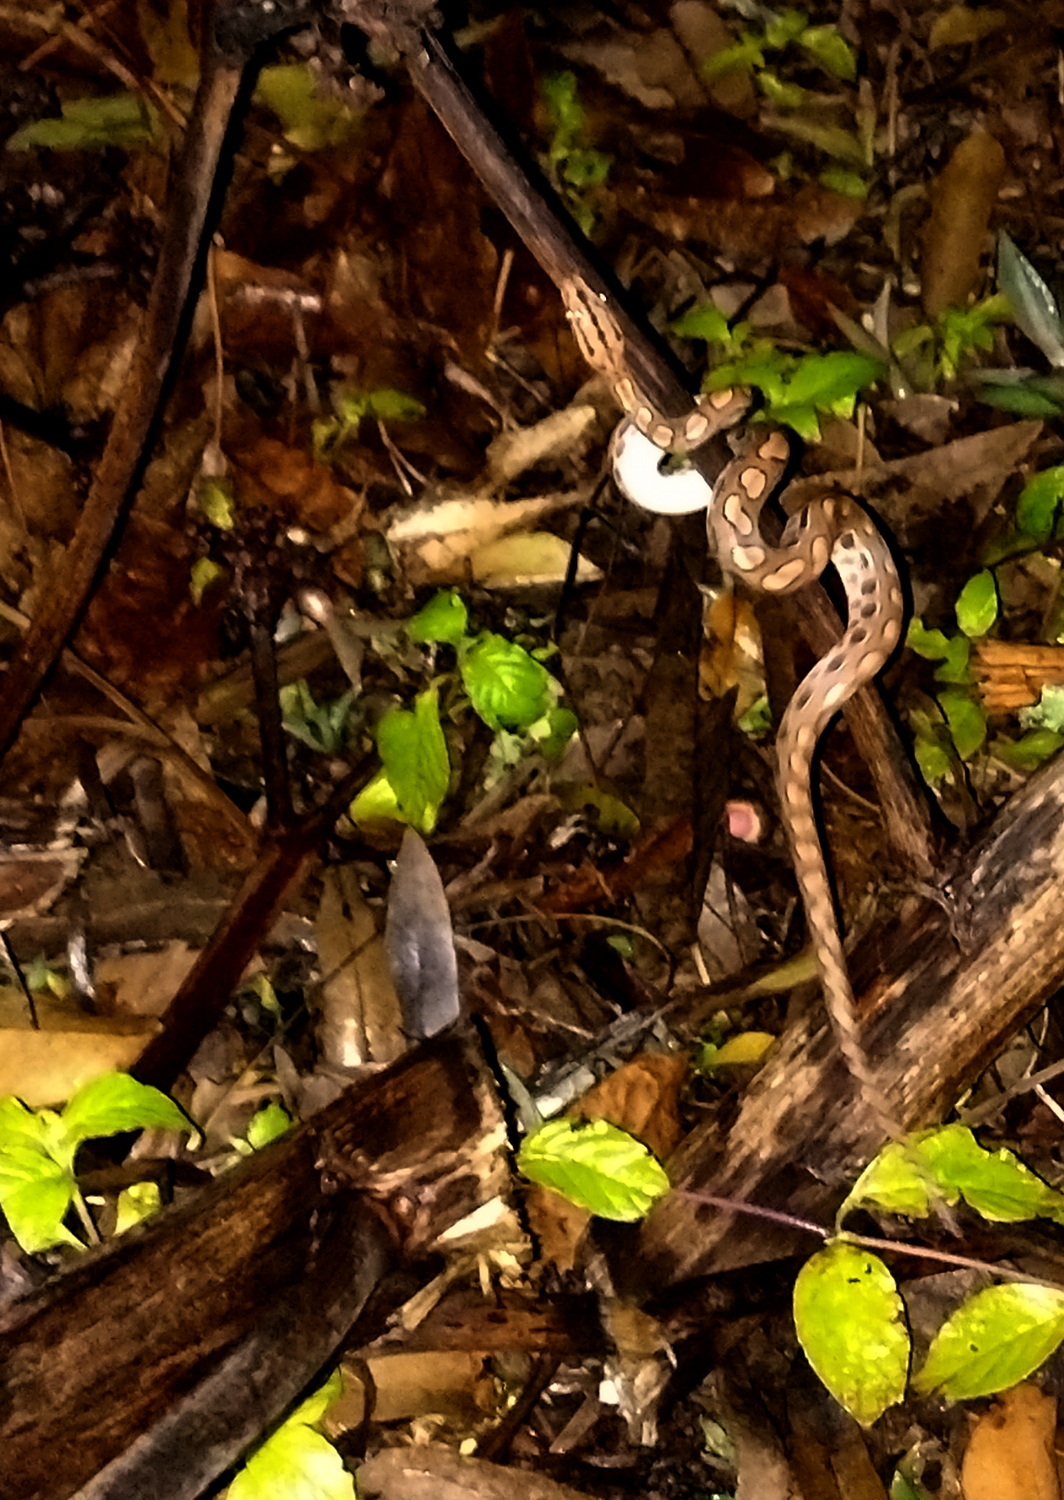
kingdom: Animalia
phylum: Chordata
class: Squamata
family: Boidae
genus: Epicrates
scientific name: Epicrates assisi
